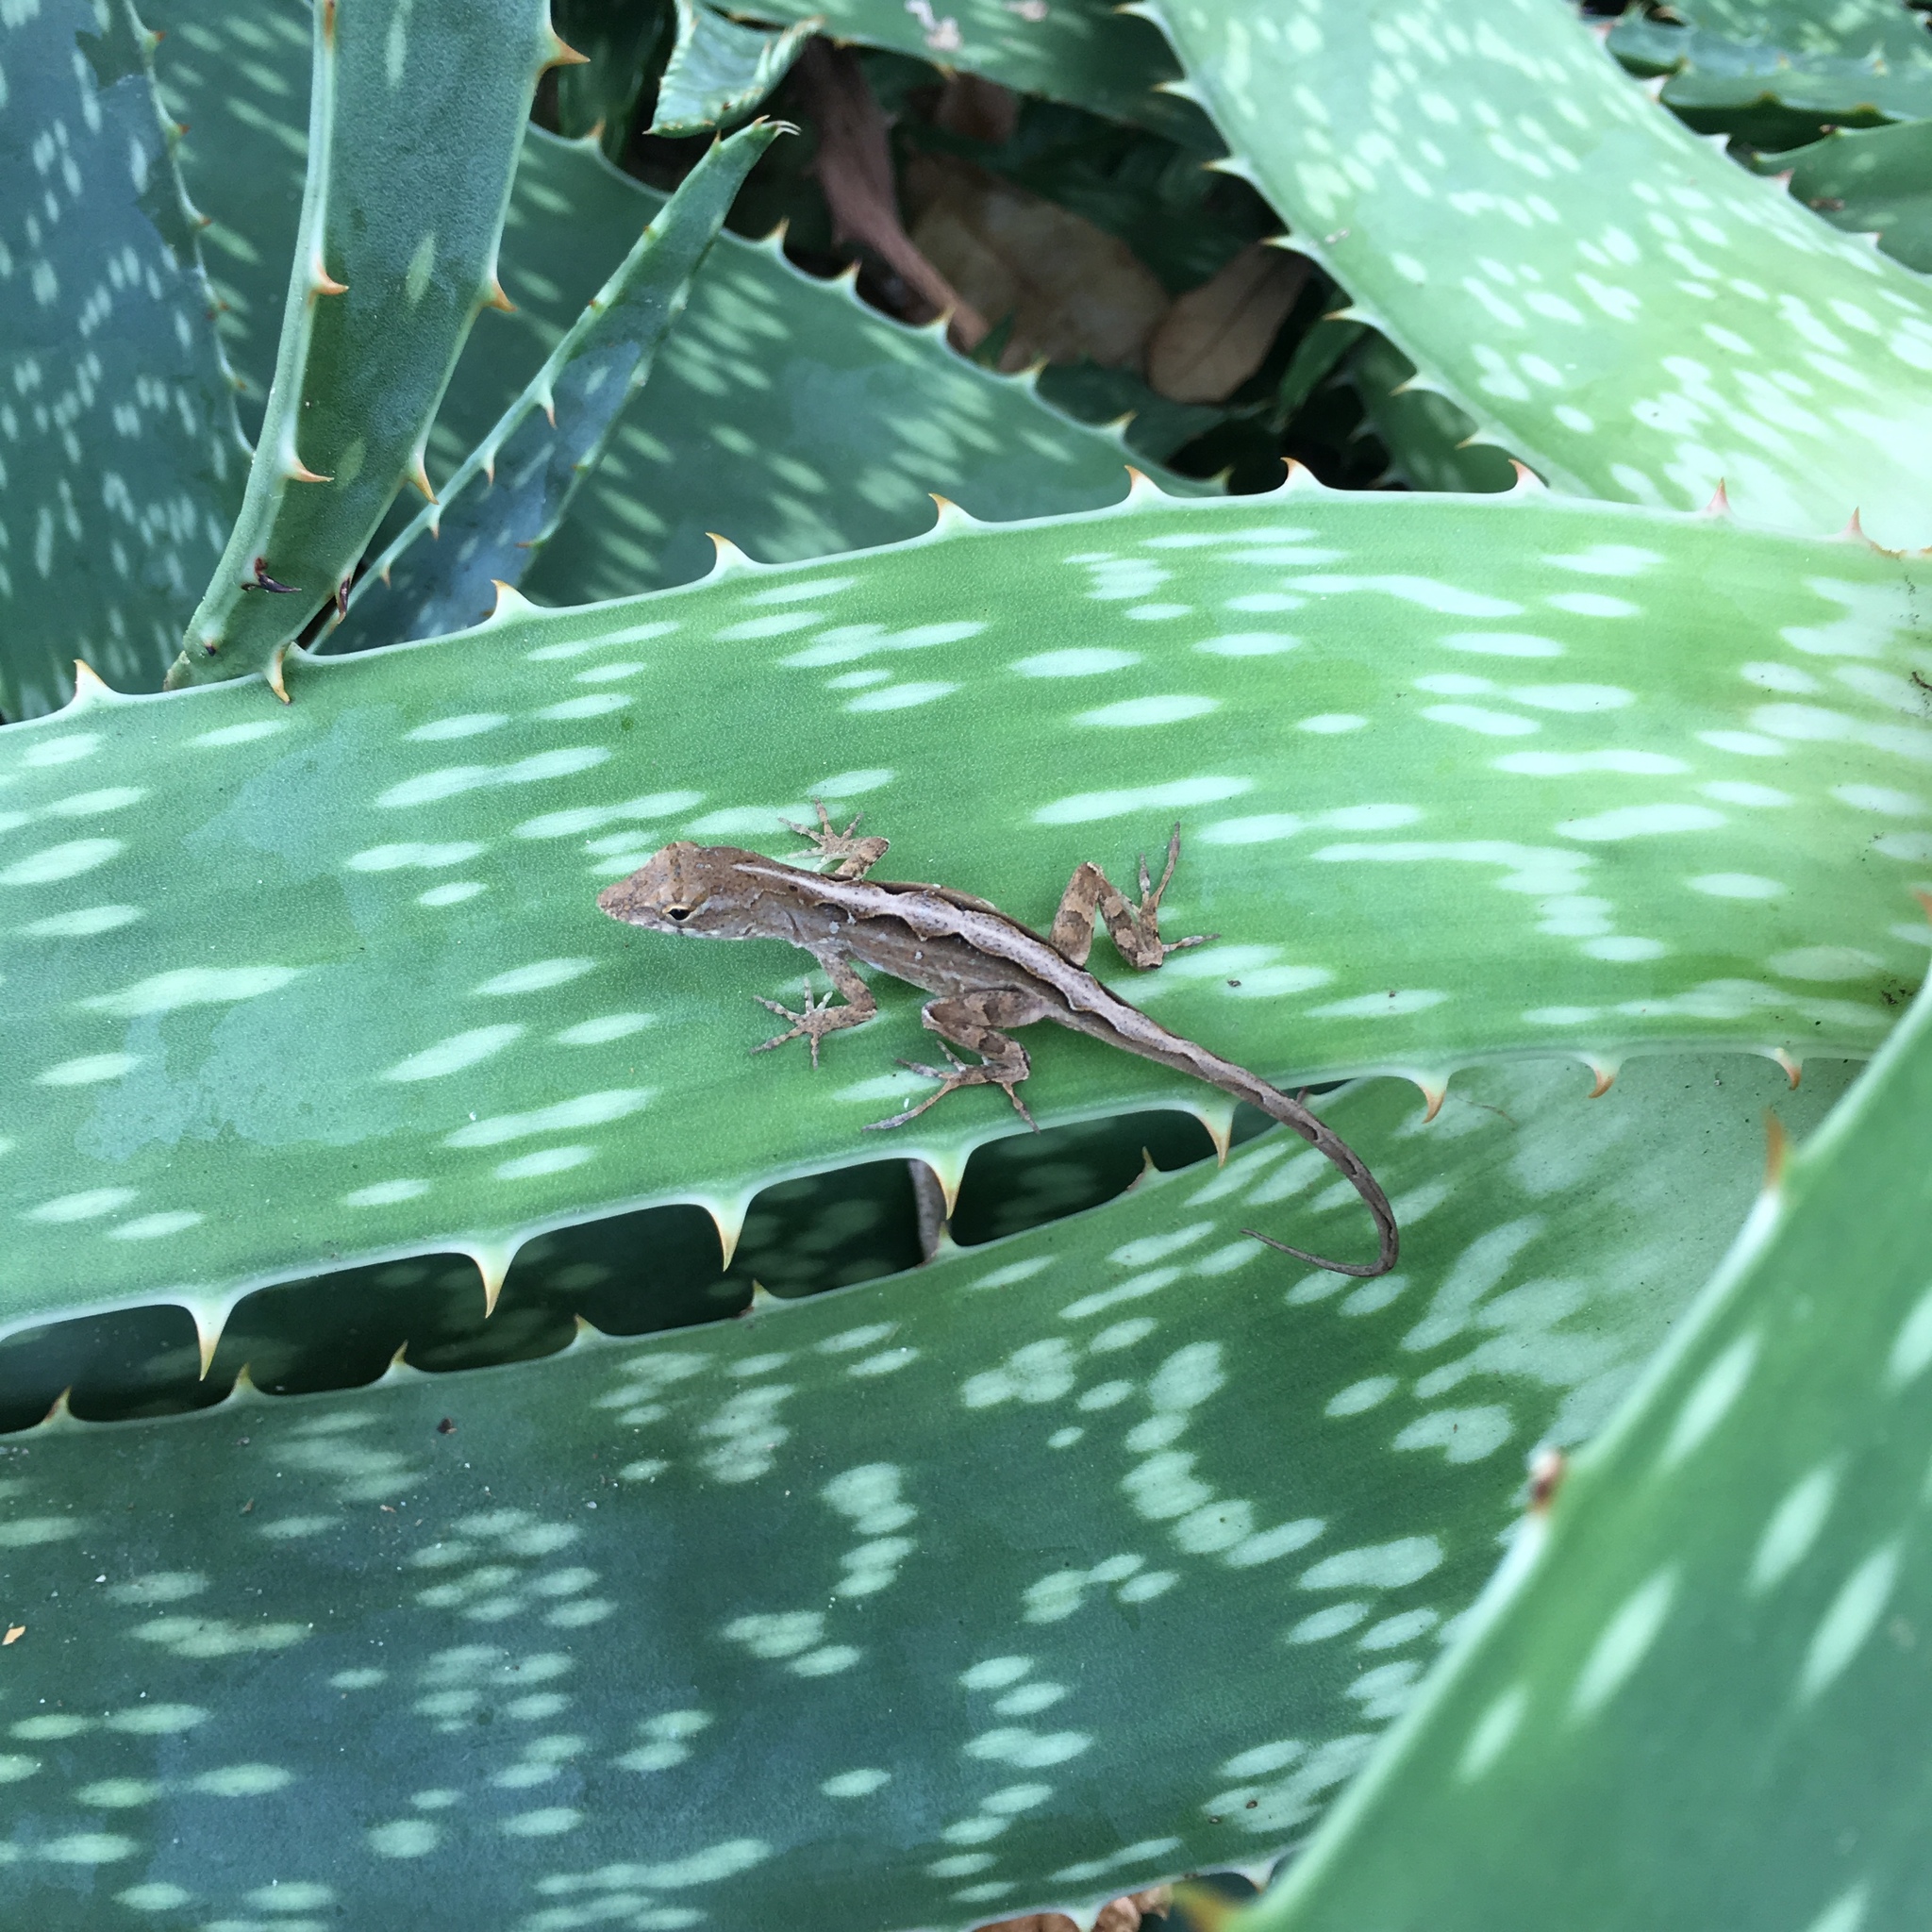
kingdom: Animalia
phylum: Chordata
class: Squamata
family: Dactyloidae
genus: Anolis
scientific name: Anolis sagrei
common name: Brown anole
